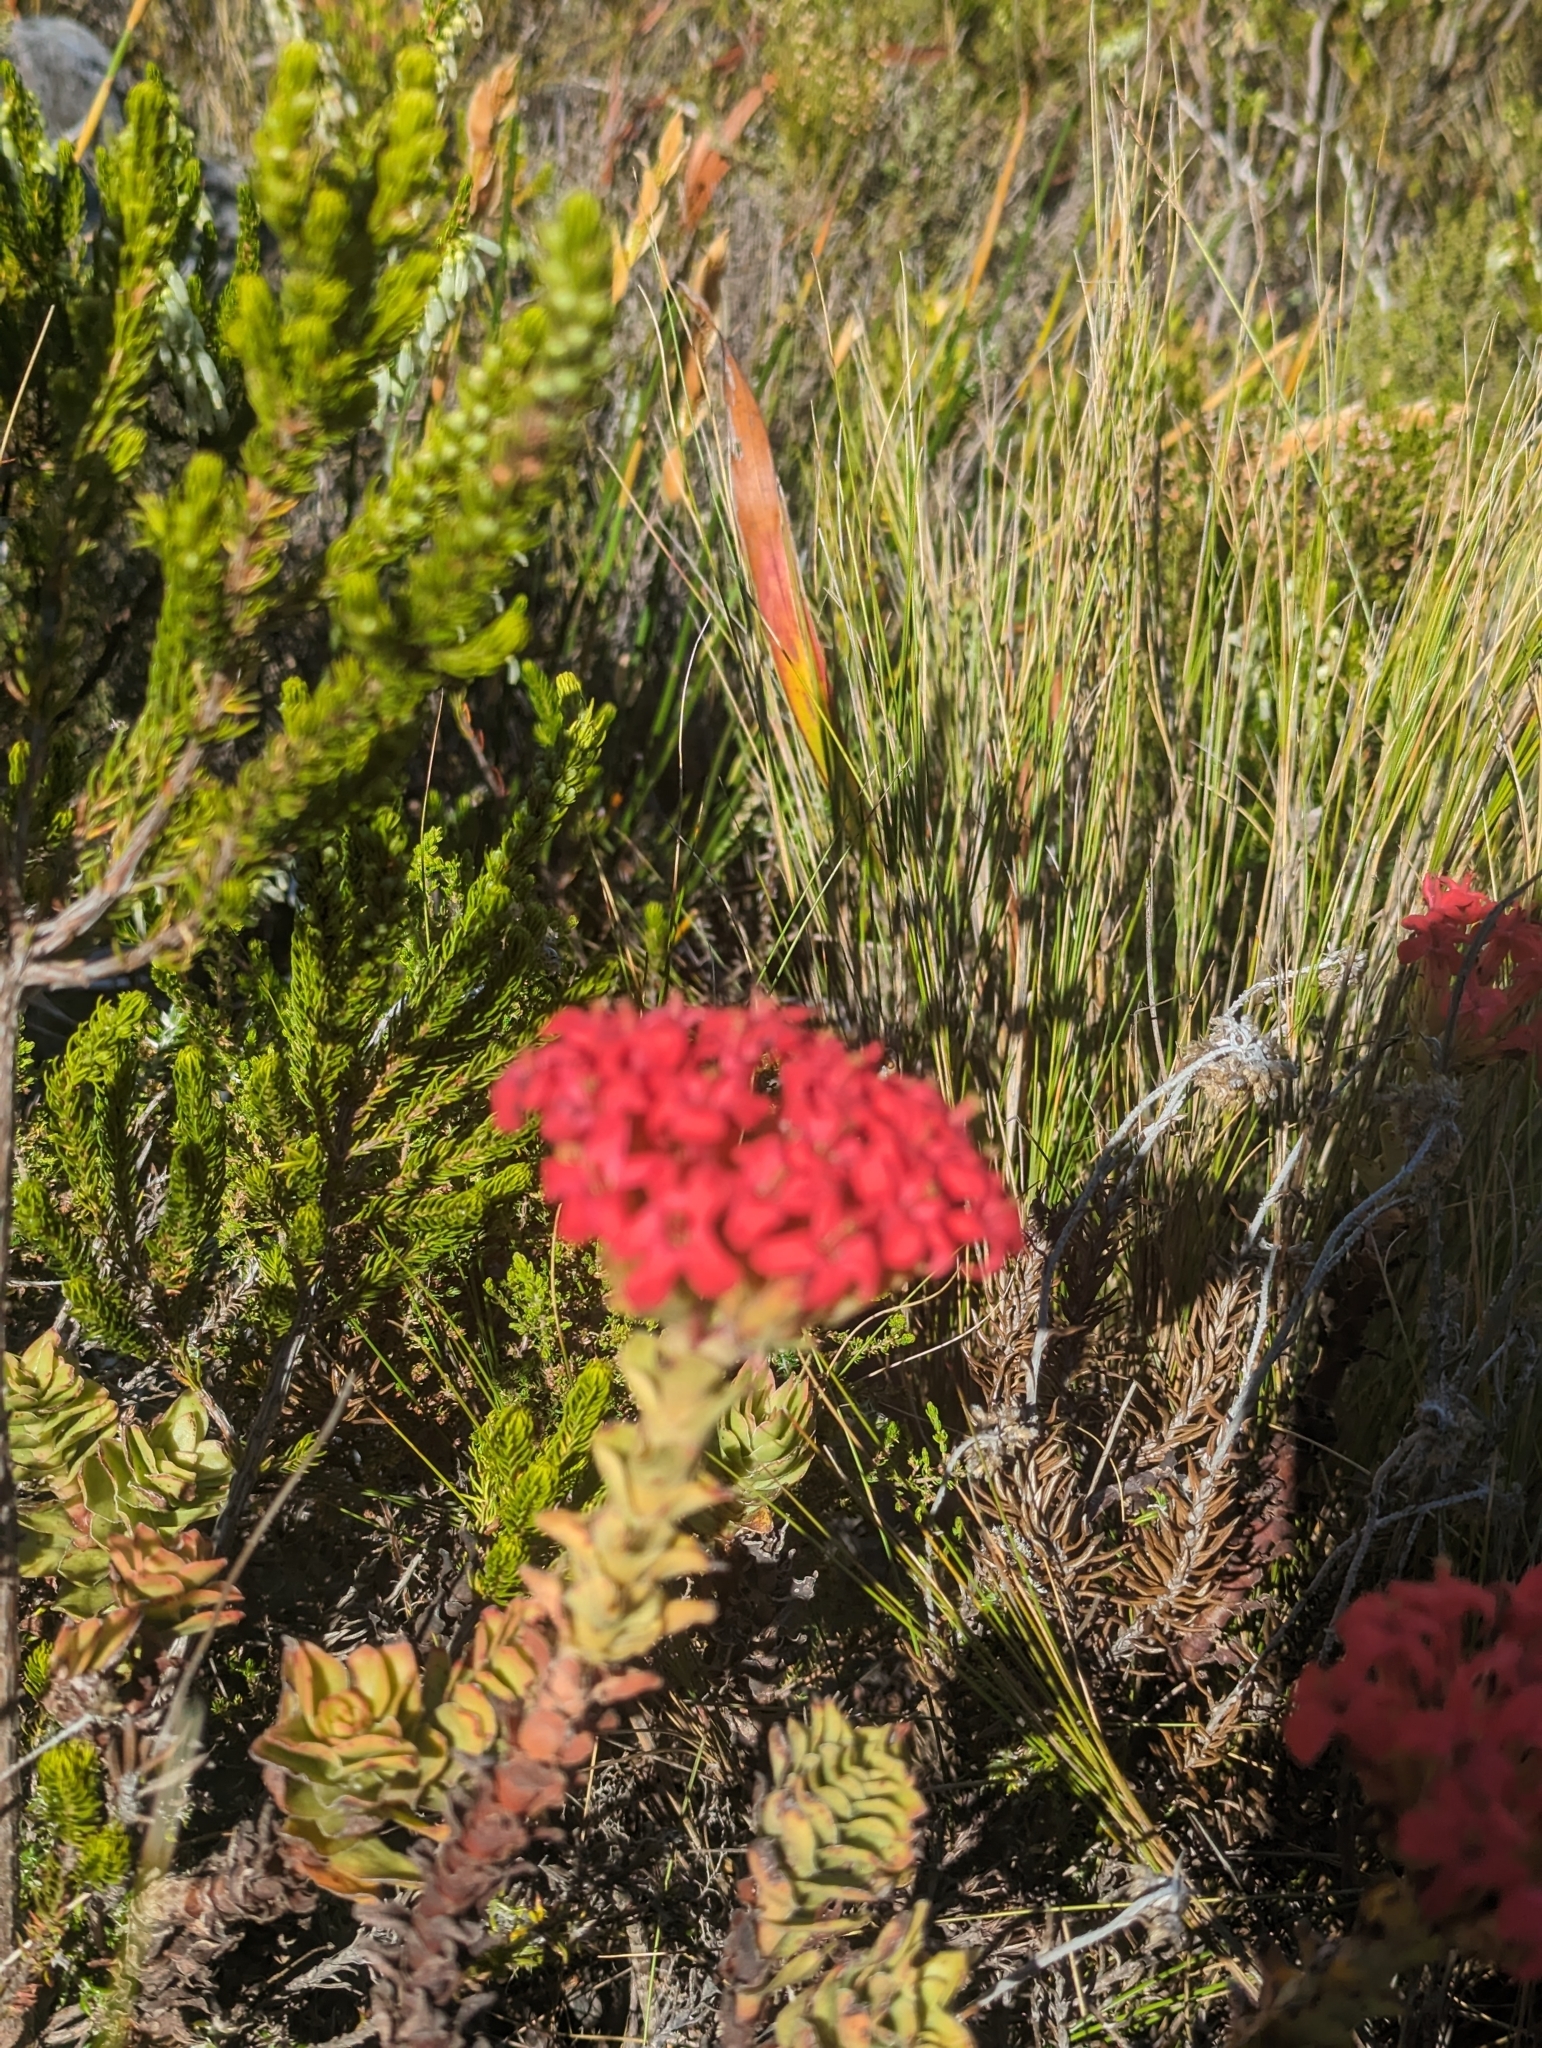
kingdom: Plantae
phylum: Tracheophyta
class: Magnoliopsida
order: Saxifragales
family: Crassulaceae
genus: Crassula
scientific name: Crassula coccinea
